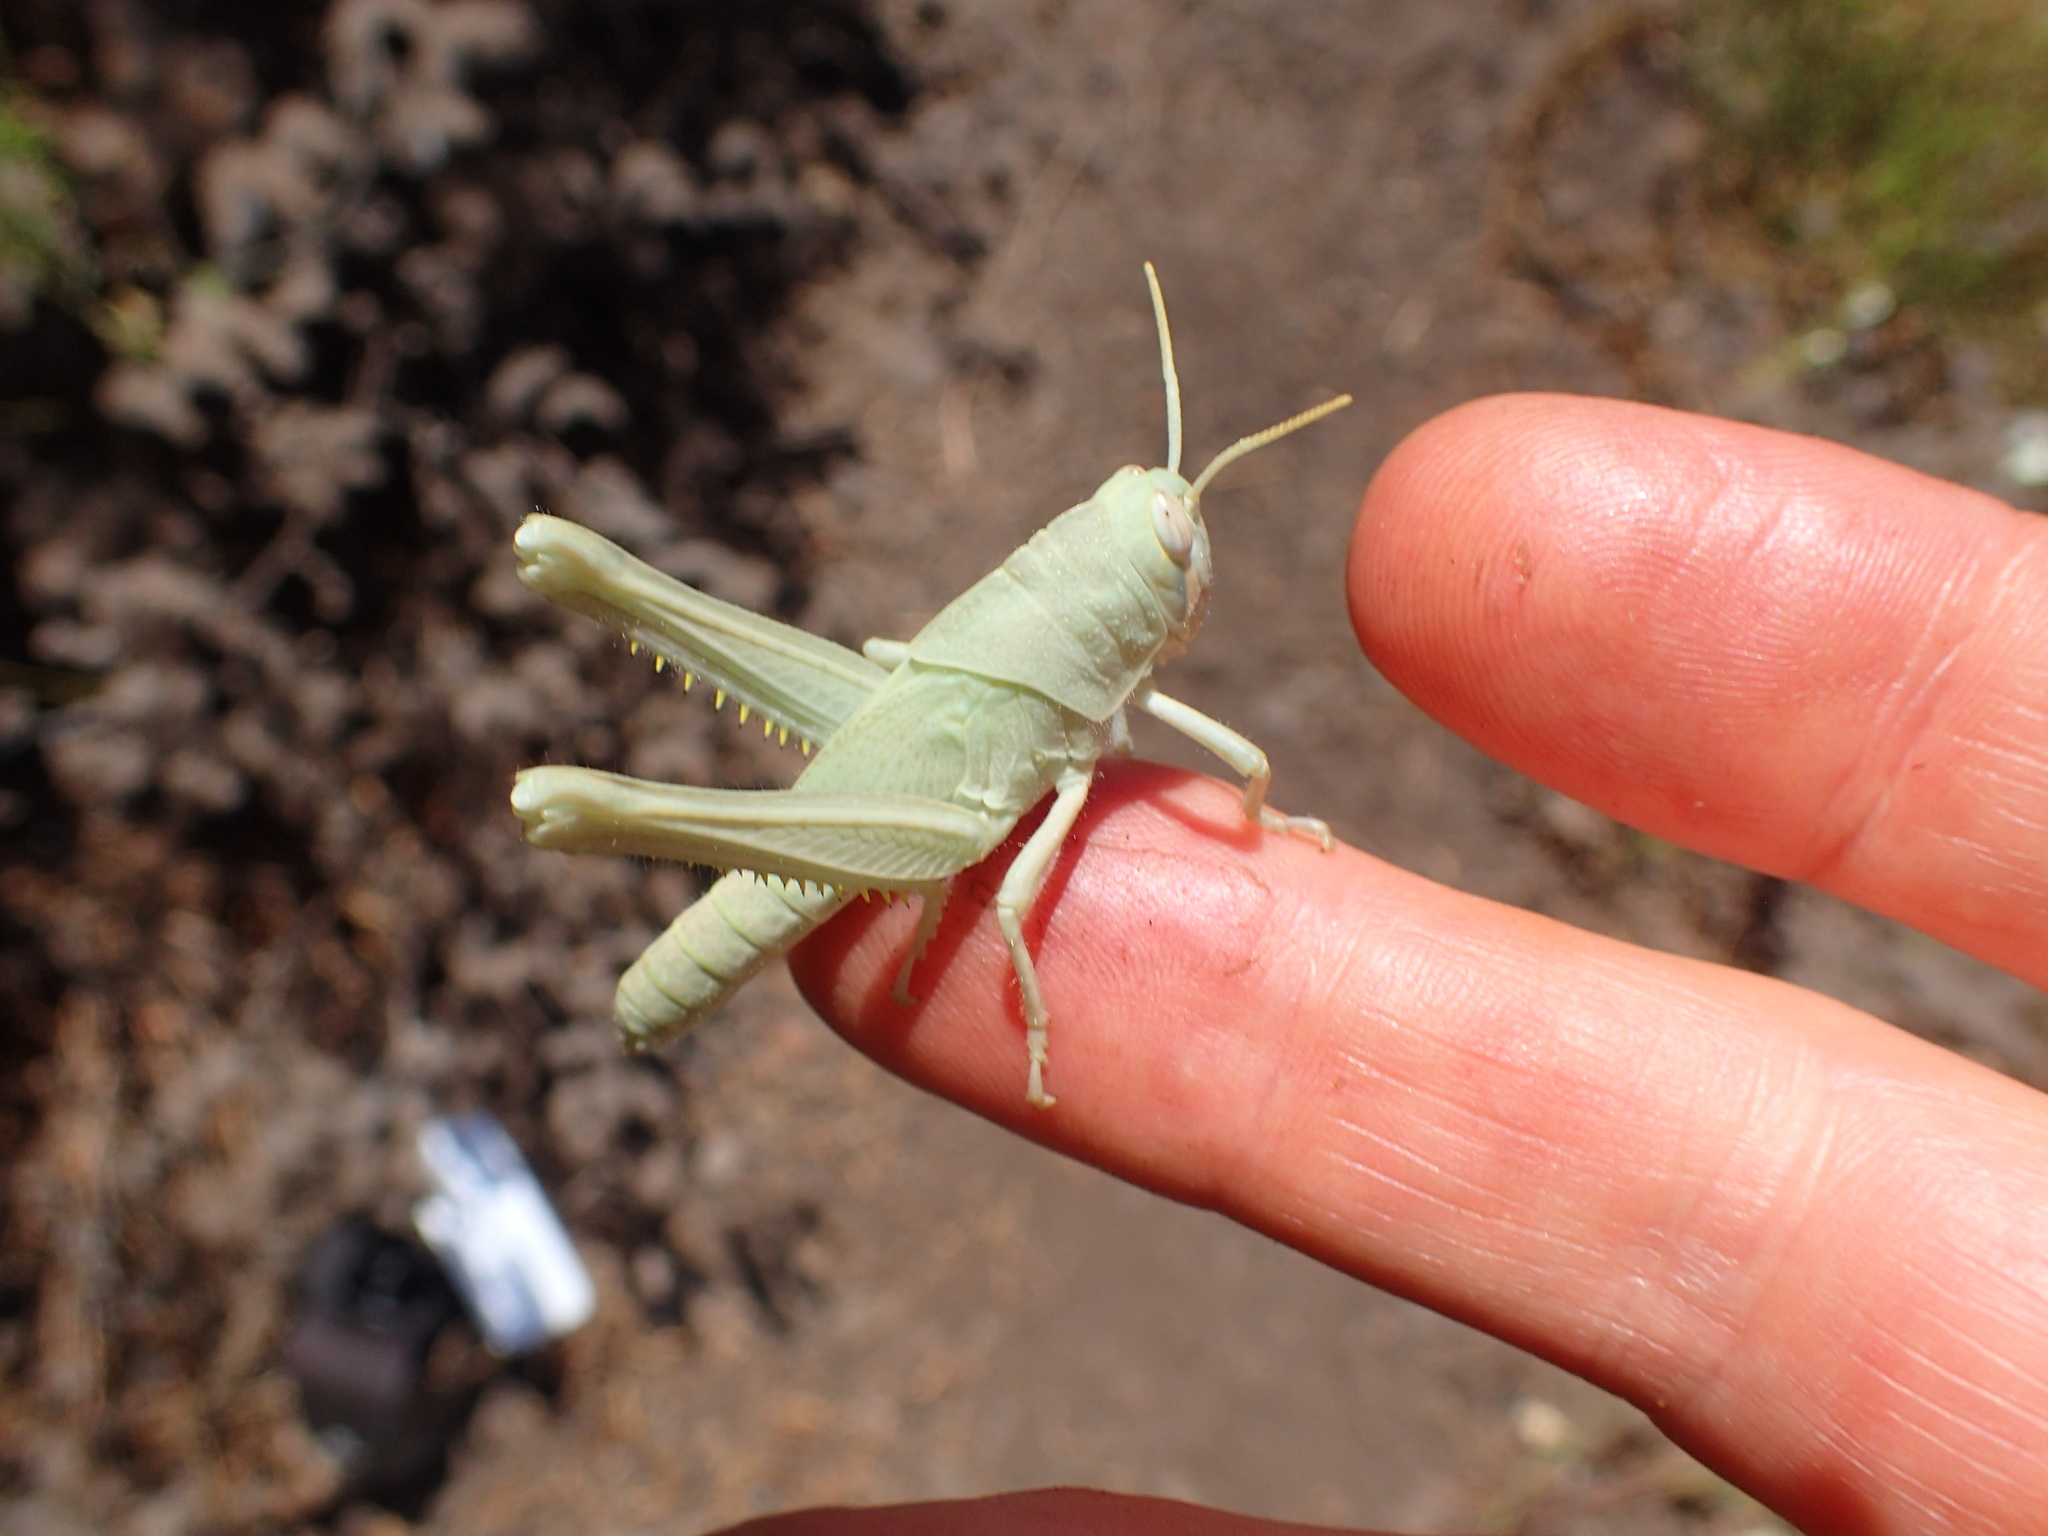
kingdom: Animalia
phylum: Arthropoda
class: Insecta
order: Orthoptera
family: Acrididae
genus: Schistocerca
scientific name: Schistocerca nitens
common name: Vagrant grasshopper
